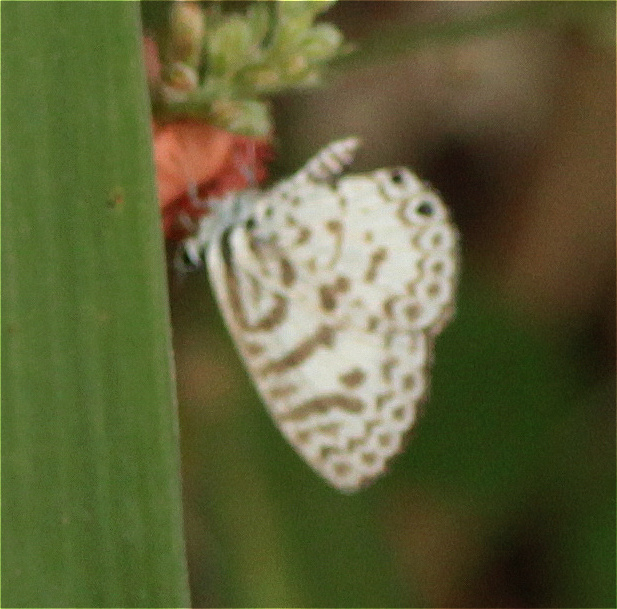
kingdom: Animalia
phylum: Arthropoda
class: Insecta
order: Lepidoptera
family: Lycaenidae
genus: Leptotes
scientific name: Leptotes cassius
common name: Cassius blue
